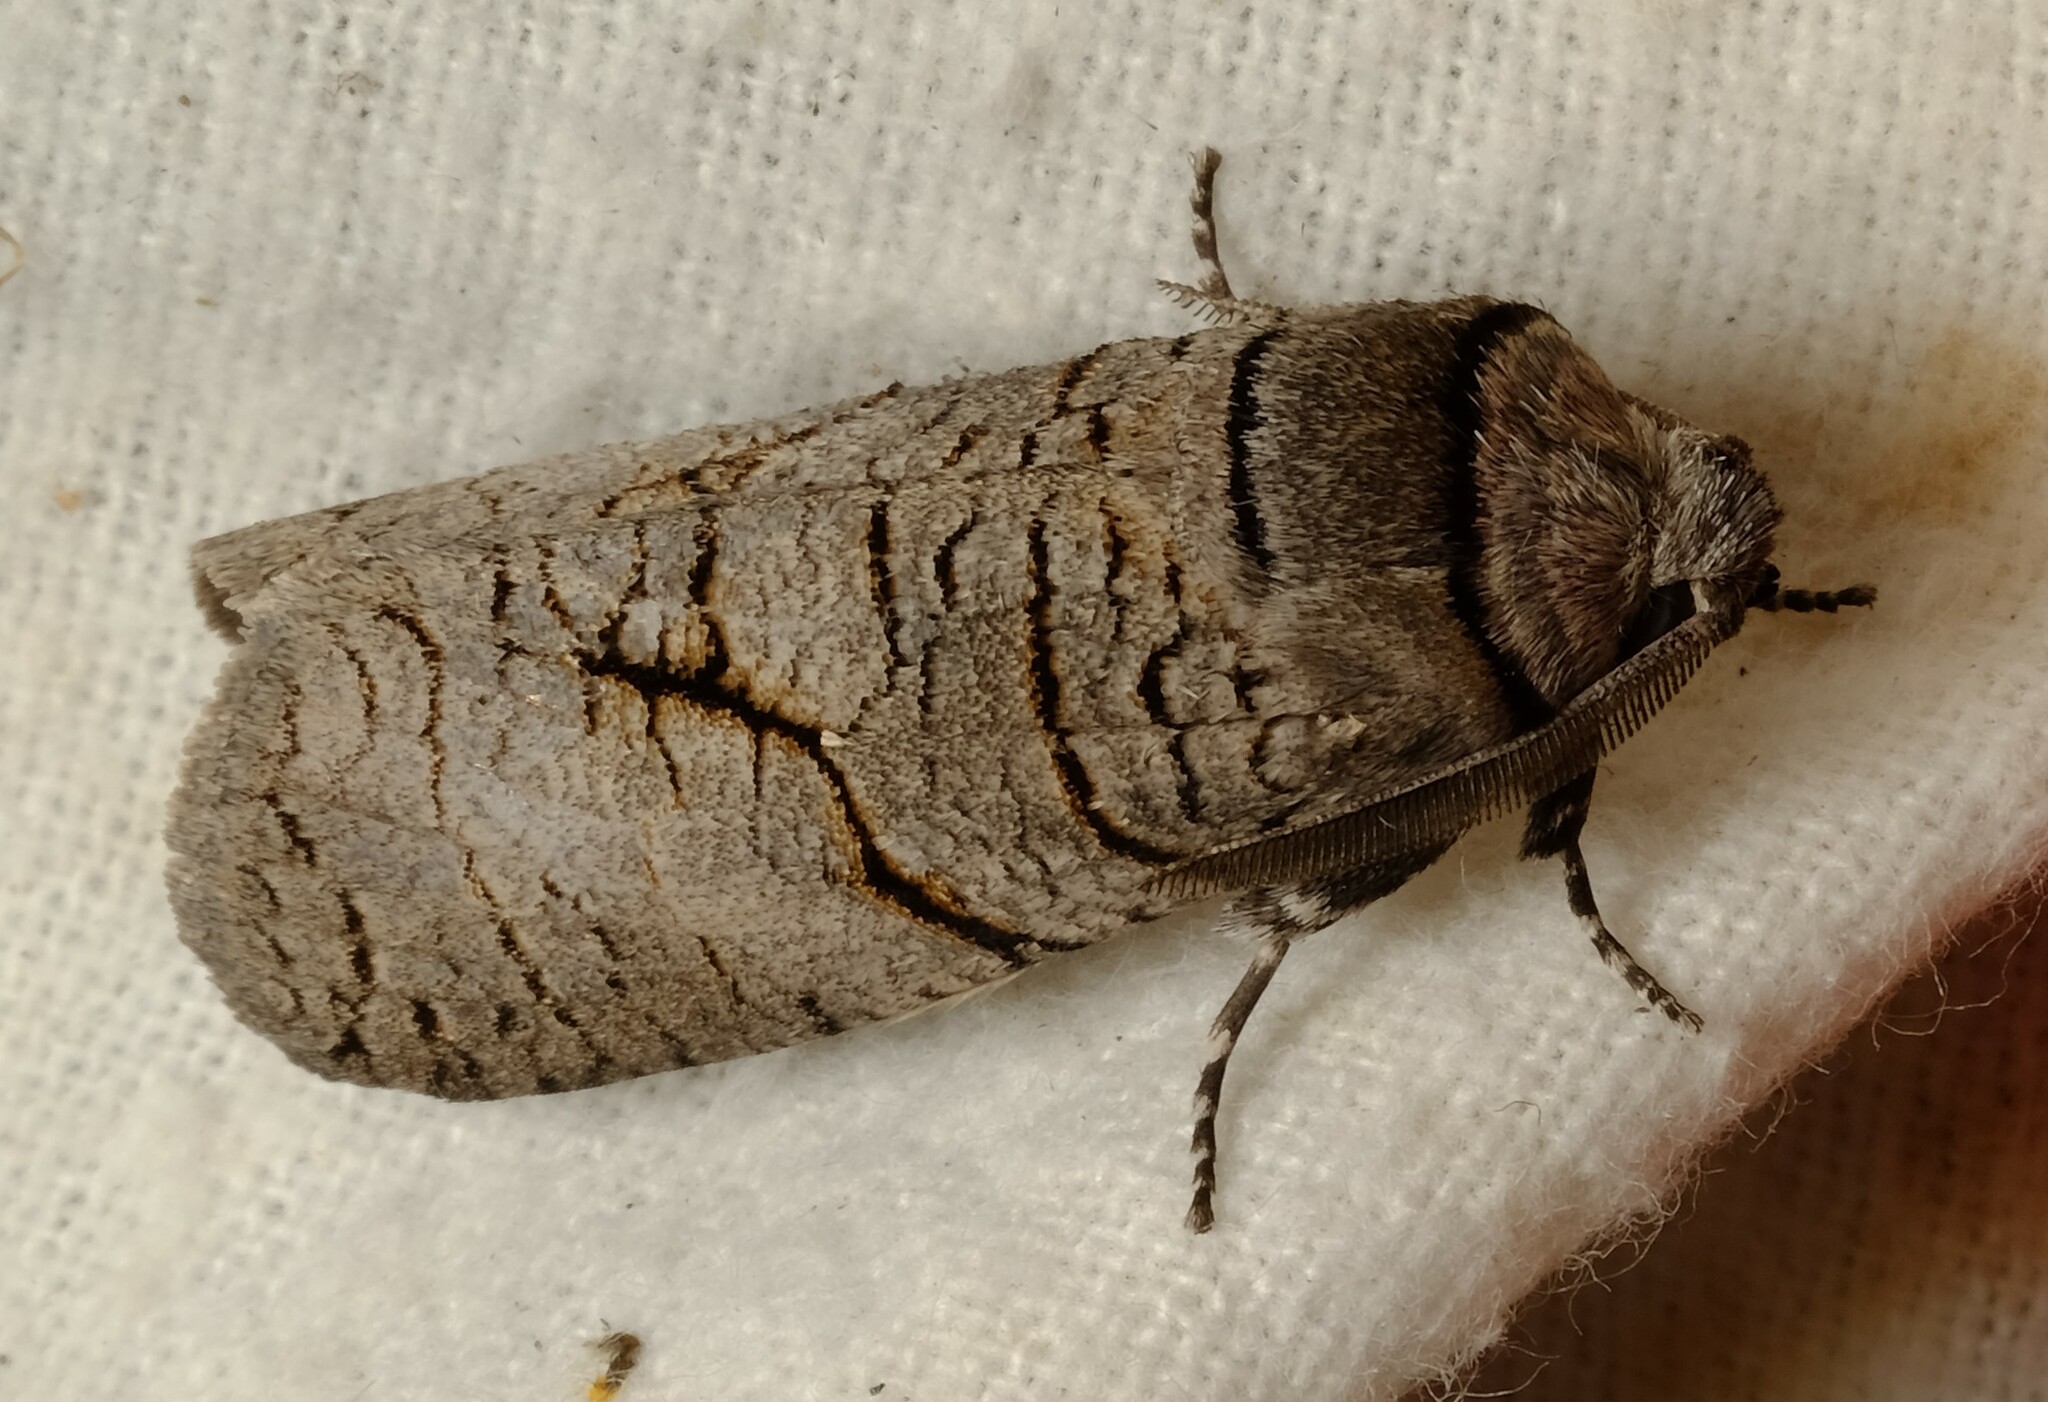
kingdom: Animalia
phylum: Arthropoda
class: Insecta
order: Lepidoptera
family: Cossidae
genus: Culama
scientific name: Culama anthracica
